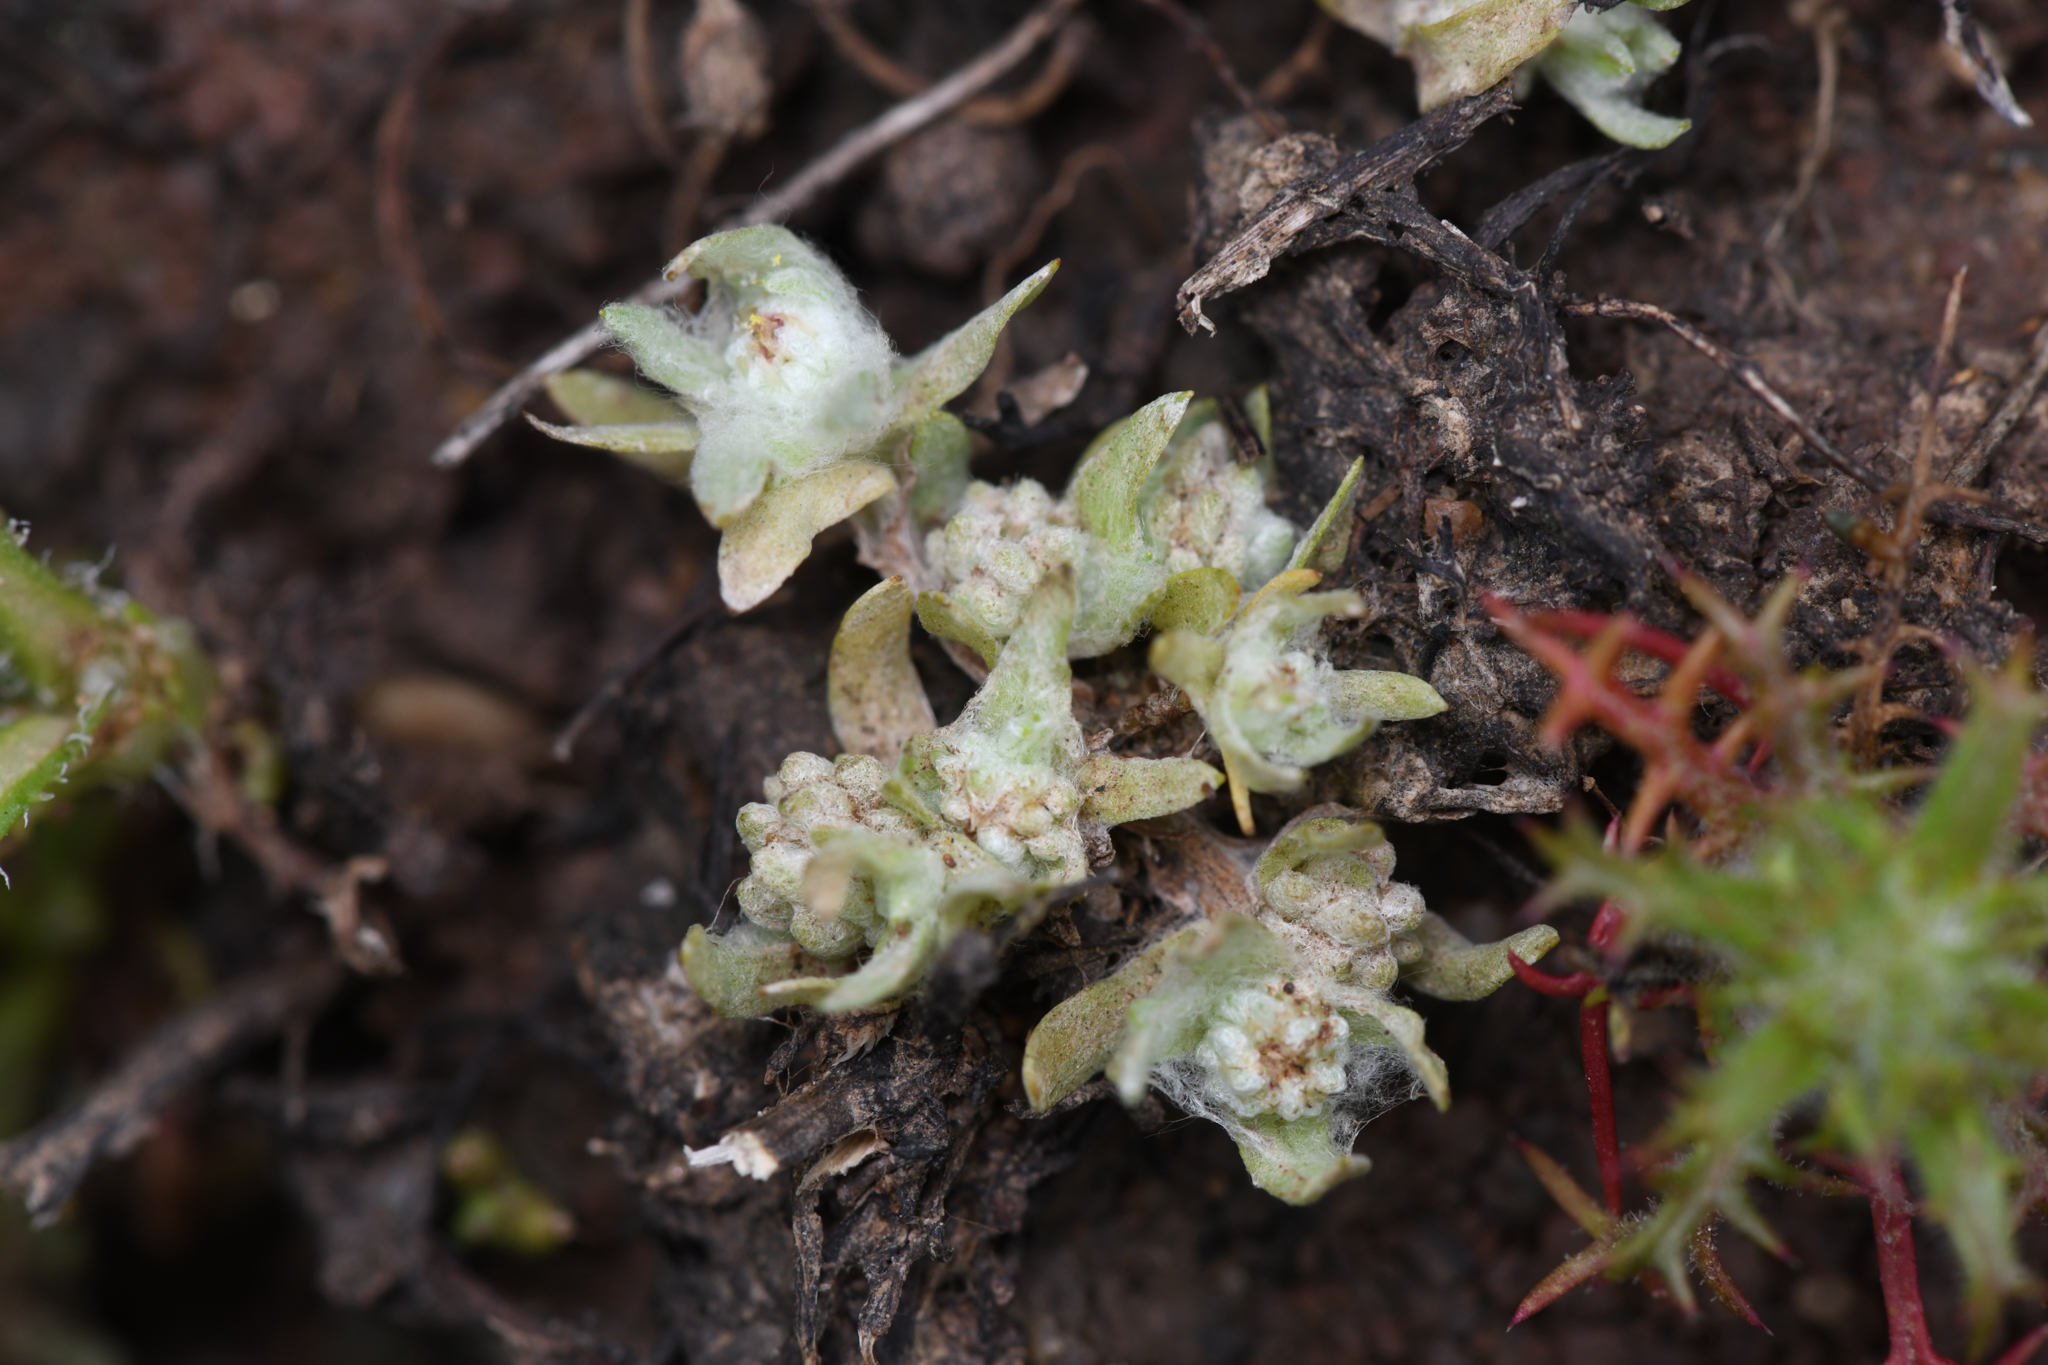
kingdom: Plantae
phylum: Tracheophyta
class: Magnoliopsida
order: Asterales
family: Asteraceae
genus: Psilocarphus
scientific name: Psilocarphus brevissimus
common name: Dwarf woollyheads
